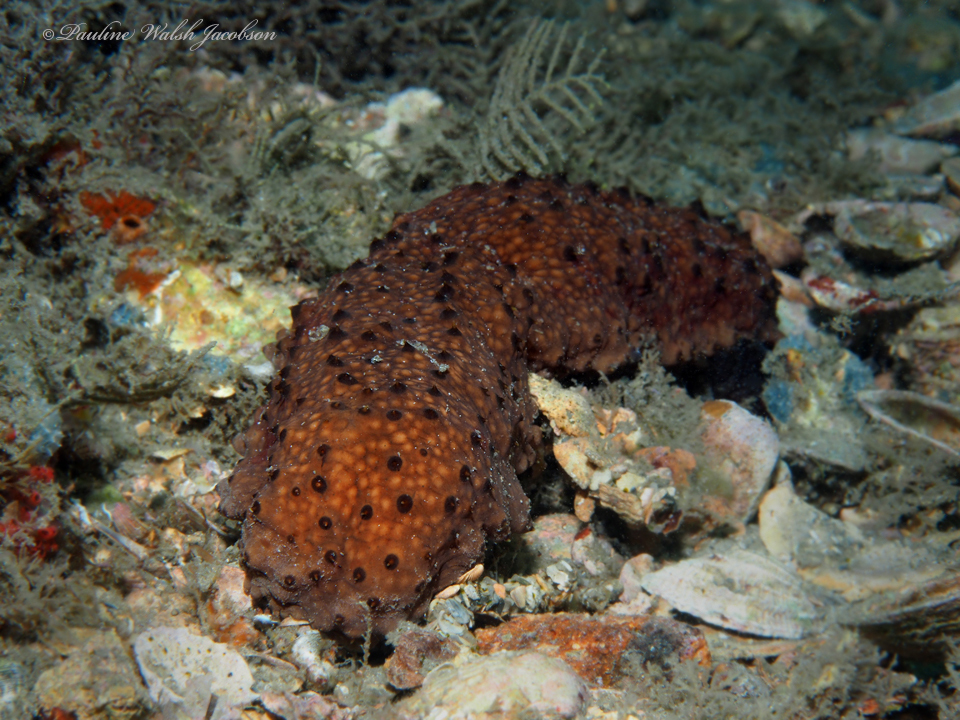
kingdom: Animalia
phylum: Echinodermata
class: Holothuroidea
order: Synallactida
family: Stichopodidae
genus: Isostichopus
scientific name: Isostichopus badionotus
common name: Chocolate chip cucumber
